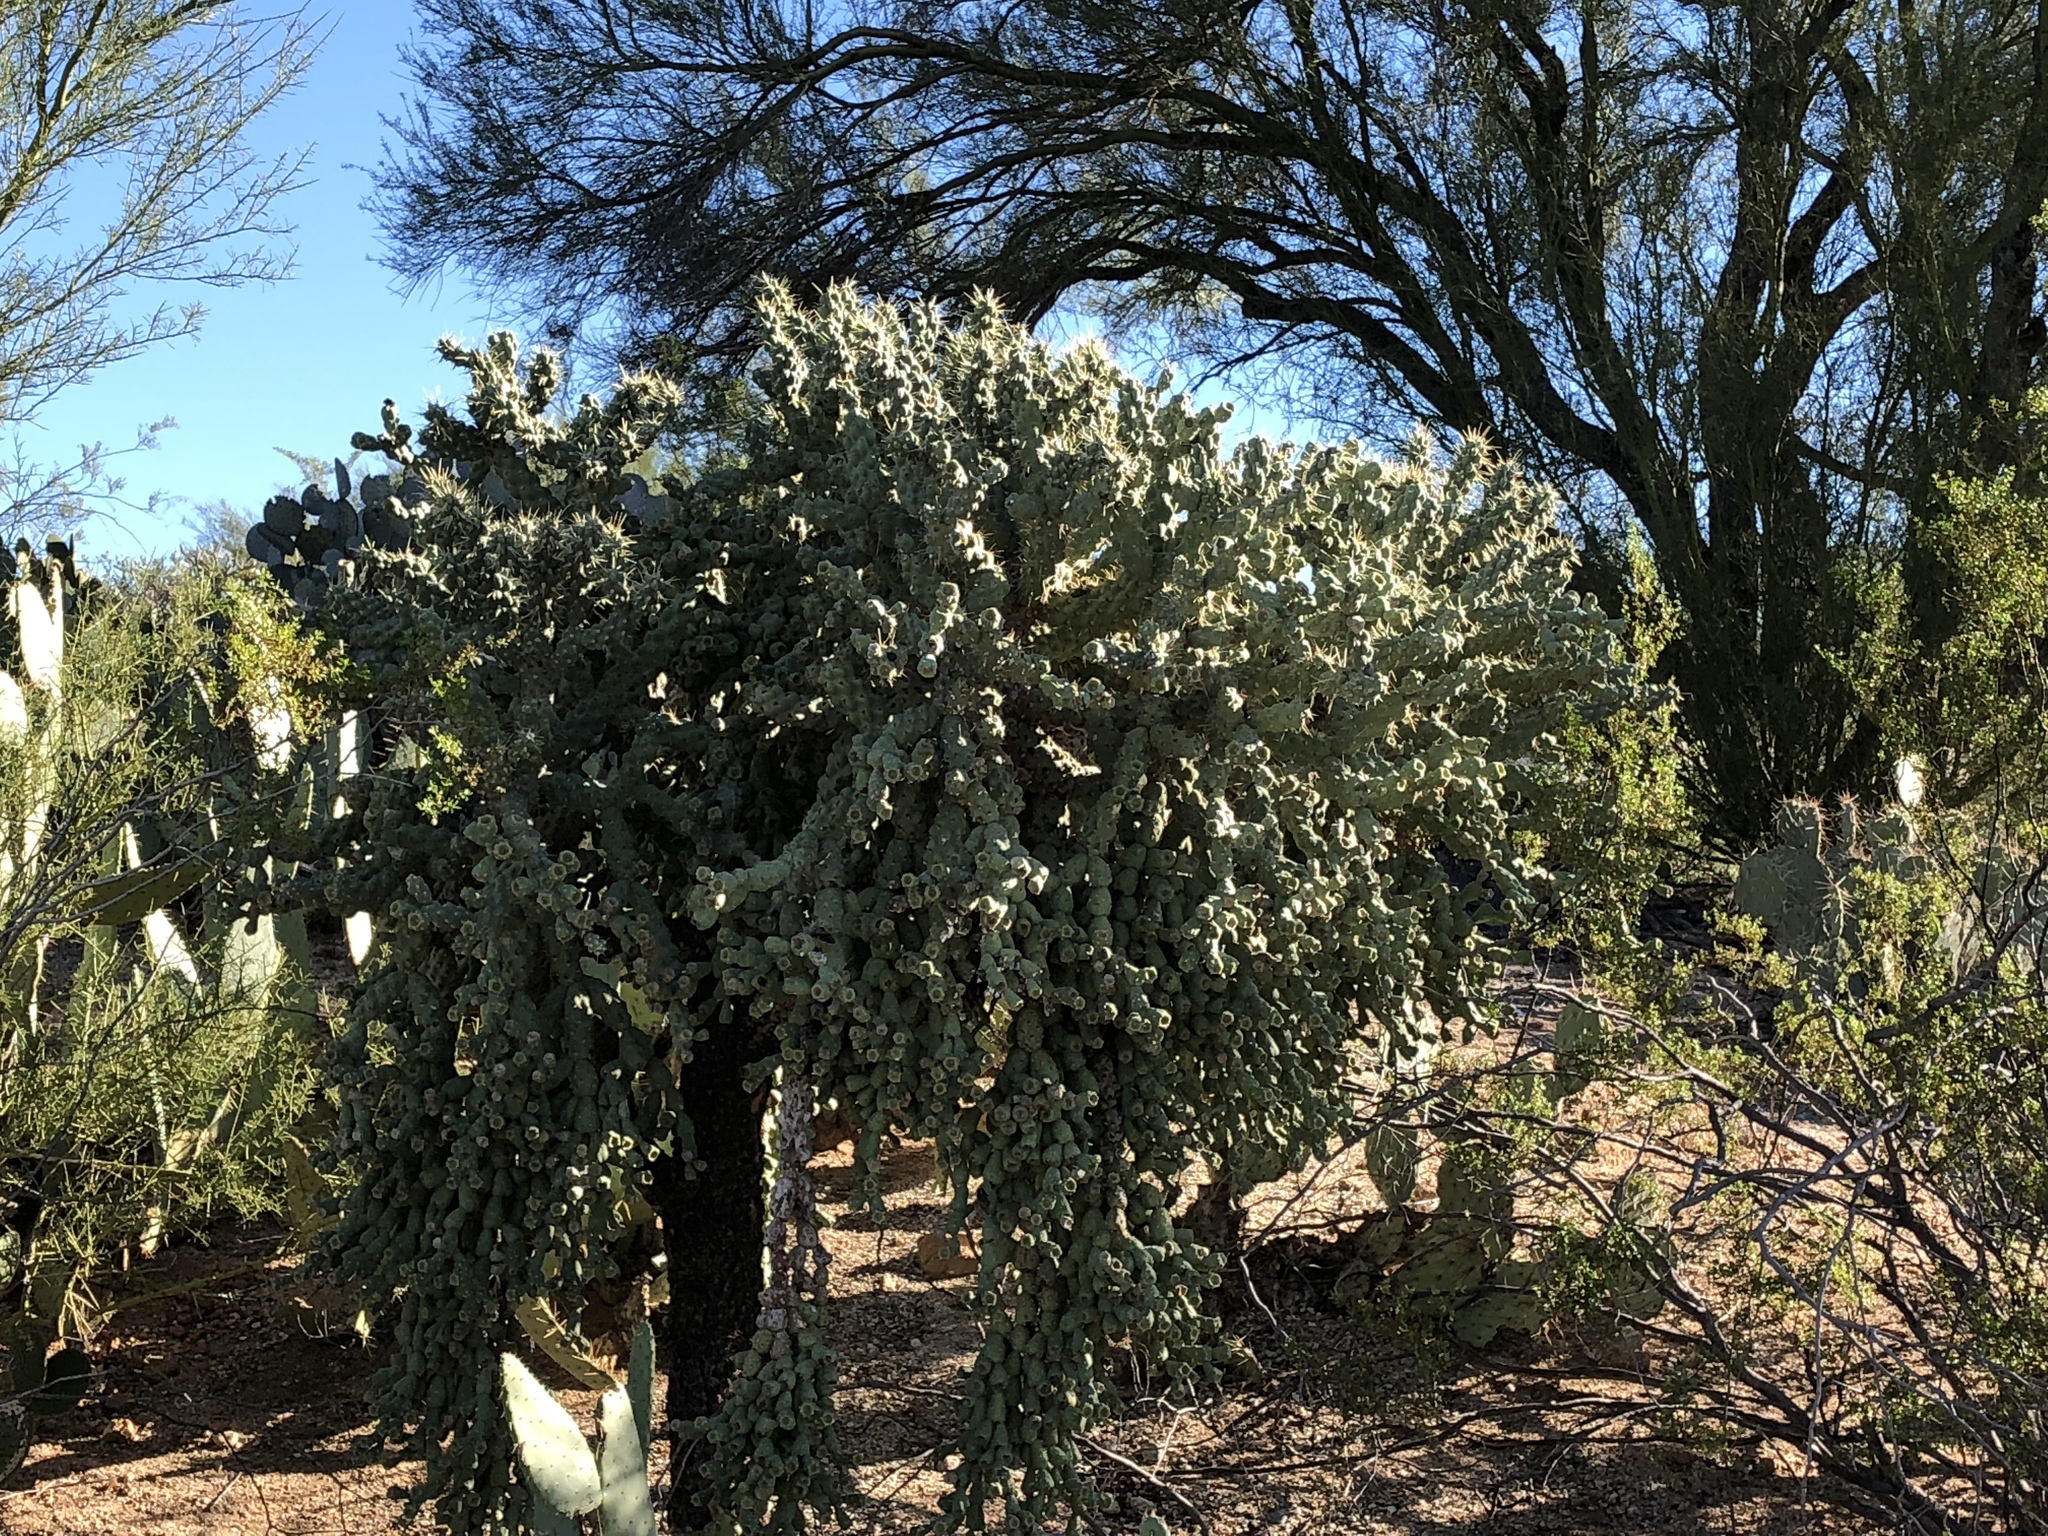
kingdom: Plantae
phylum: Tracheophyta
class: Magnoliopsida
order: Caryophyllales
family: Cactaceae
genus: Cylindropuntia
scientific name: Cylindropuntia fulgida
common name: Jumping cholla
